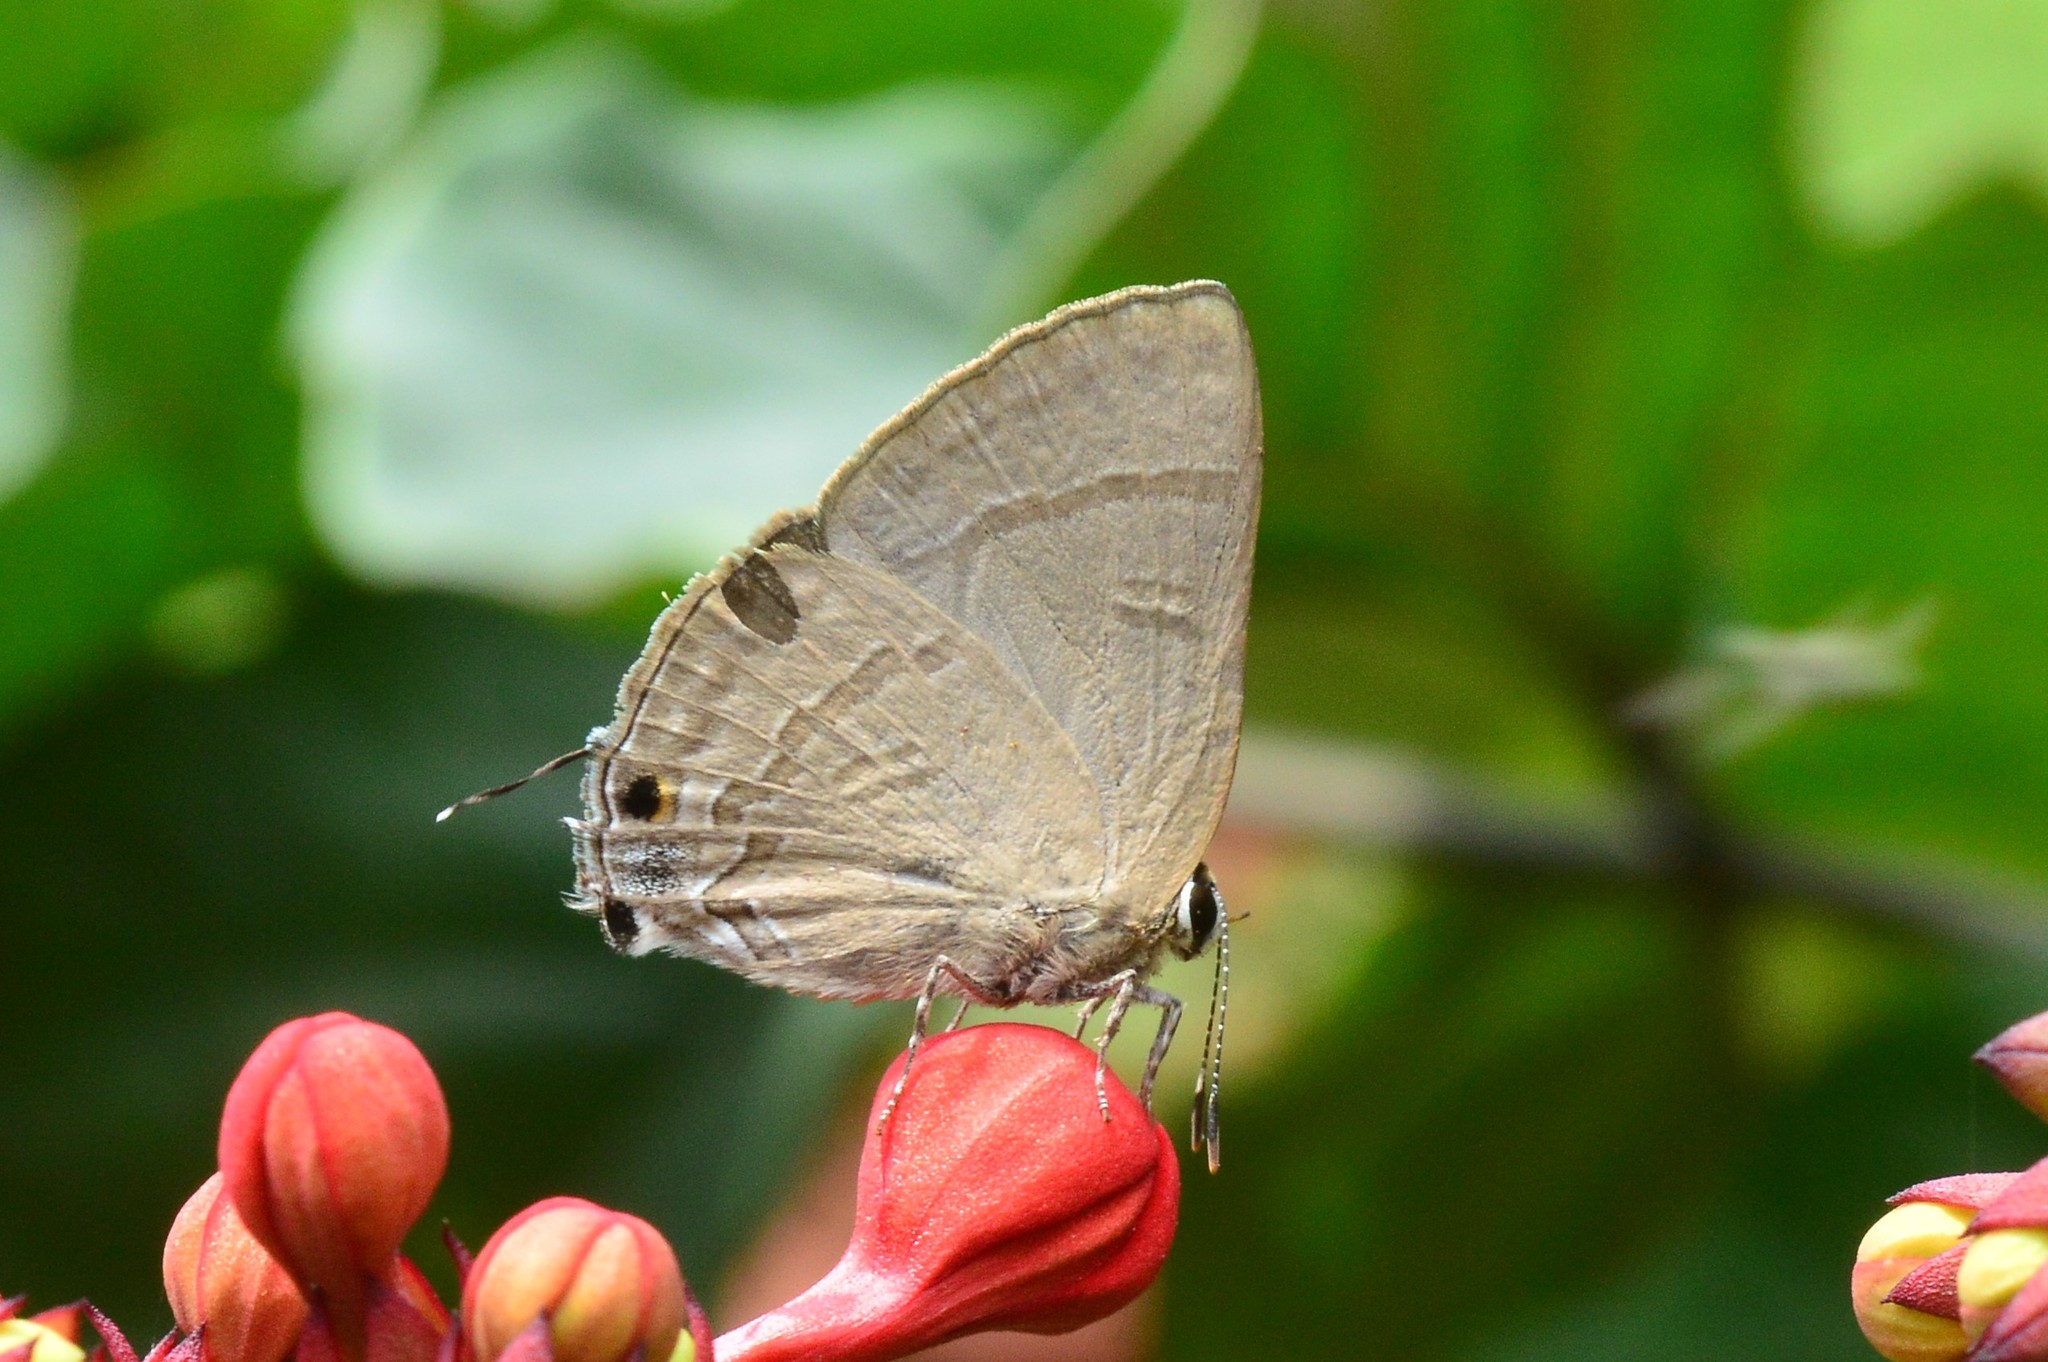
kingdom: Animalia
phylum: Arthropoda
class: Insecta
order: Lepidoptera
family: Lycaenidae
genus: Rapala
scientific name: Rapala manea
